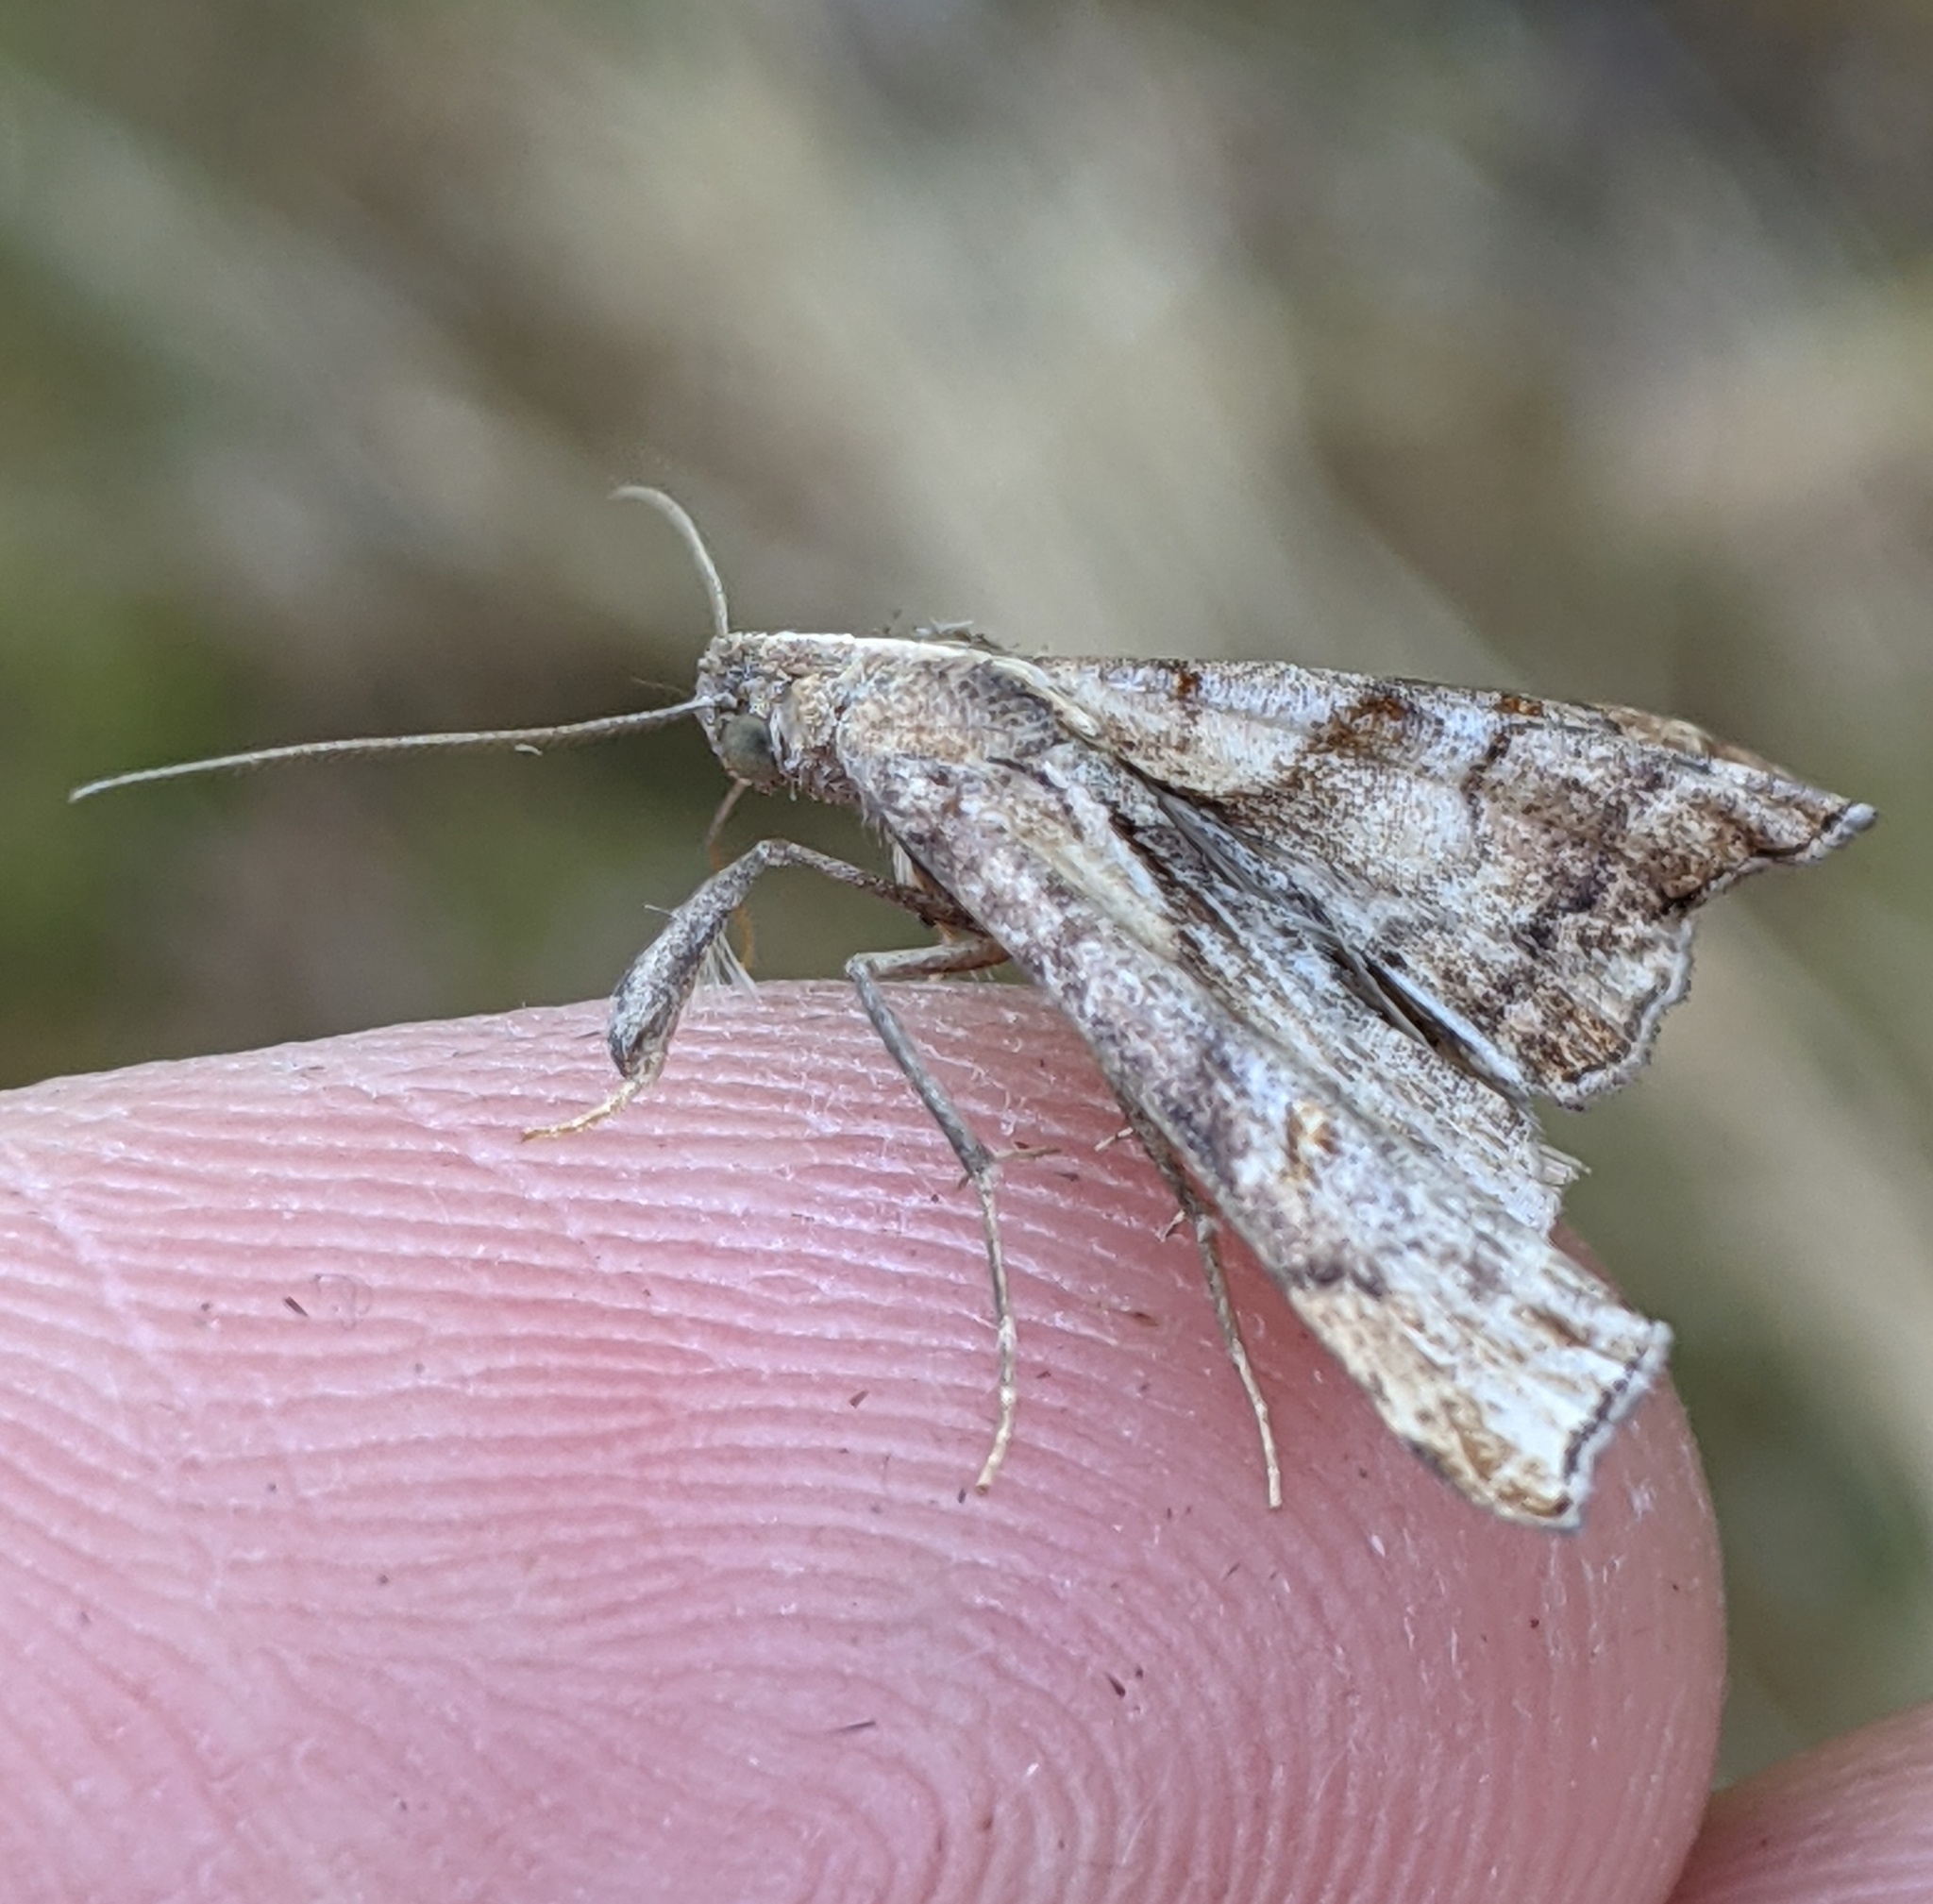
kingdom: Animalia
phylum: Arthropoda
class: Insecta
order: Lepidoptera
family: Erebidae
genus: Palthis
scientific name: Palthis angulalis
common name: Dark-spotted palthis moth
